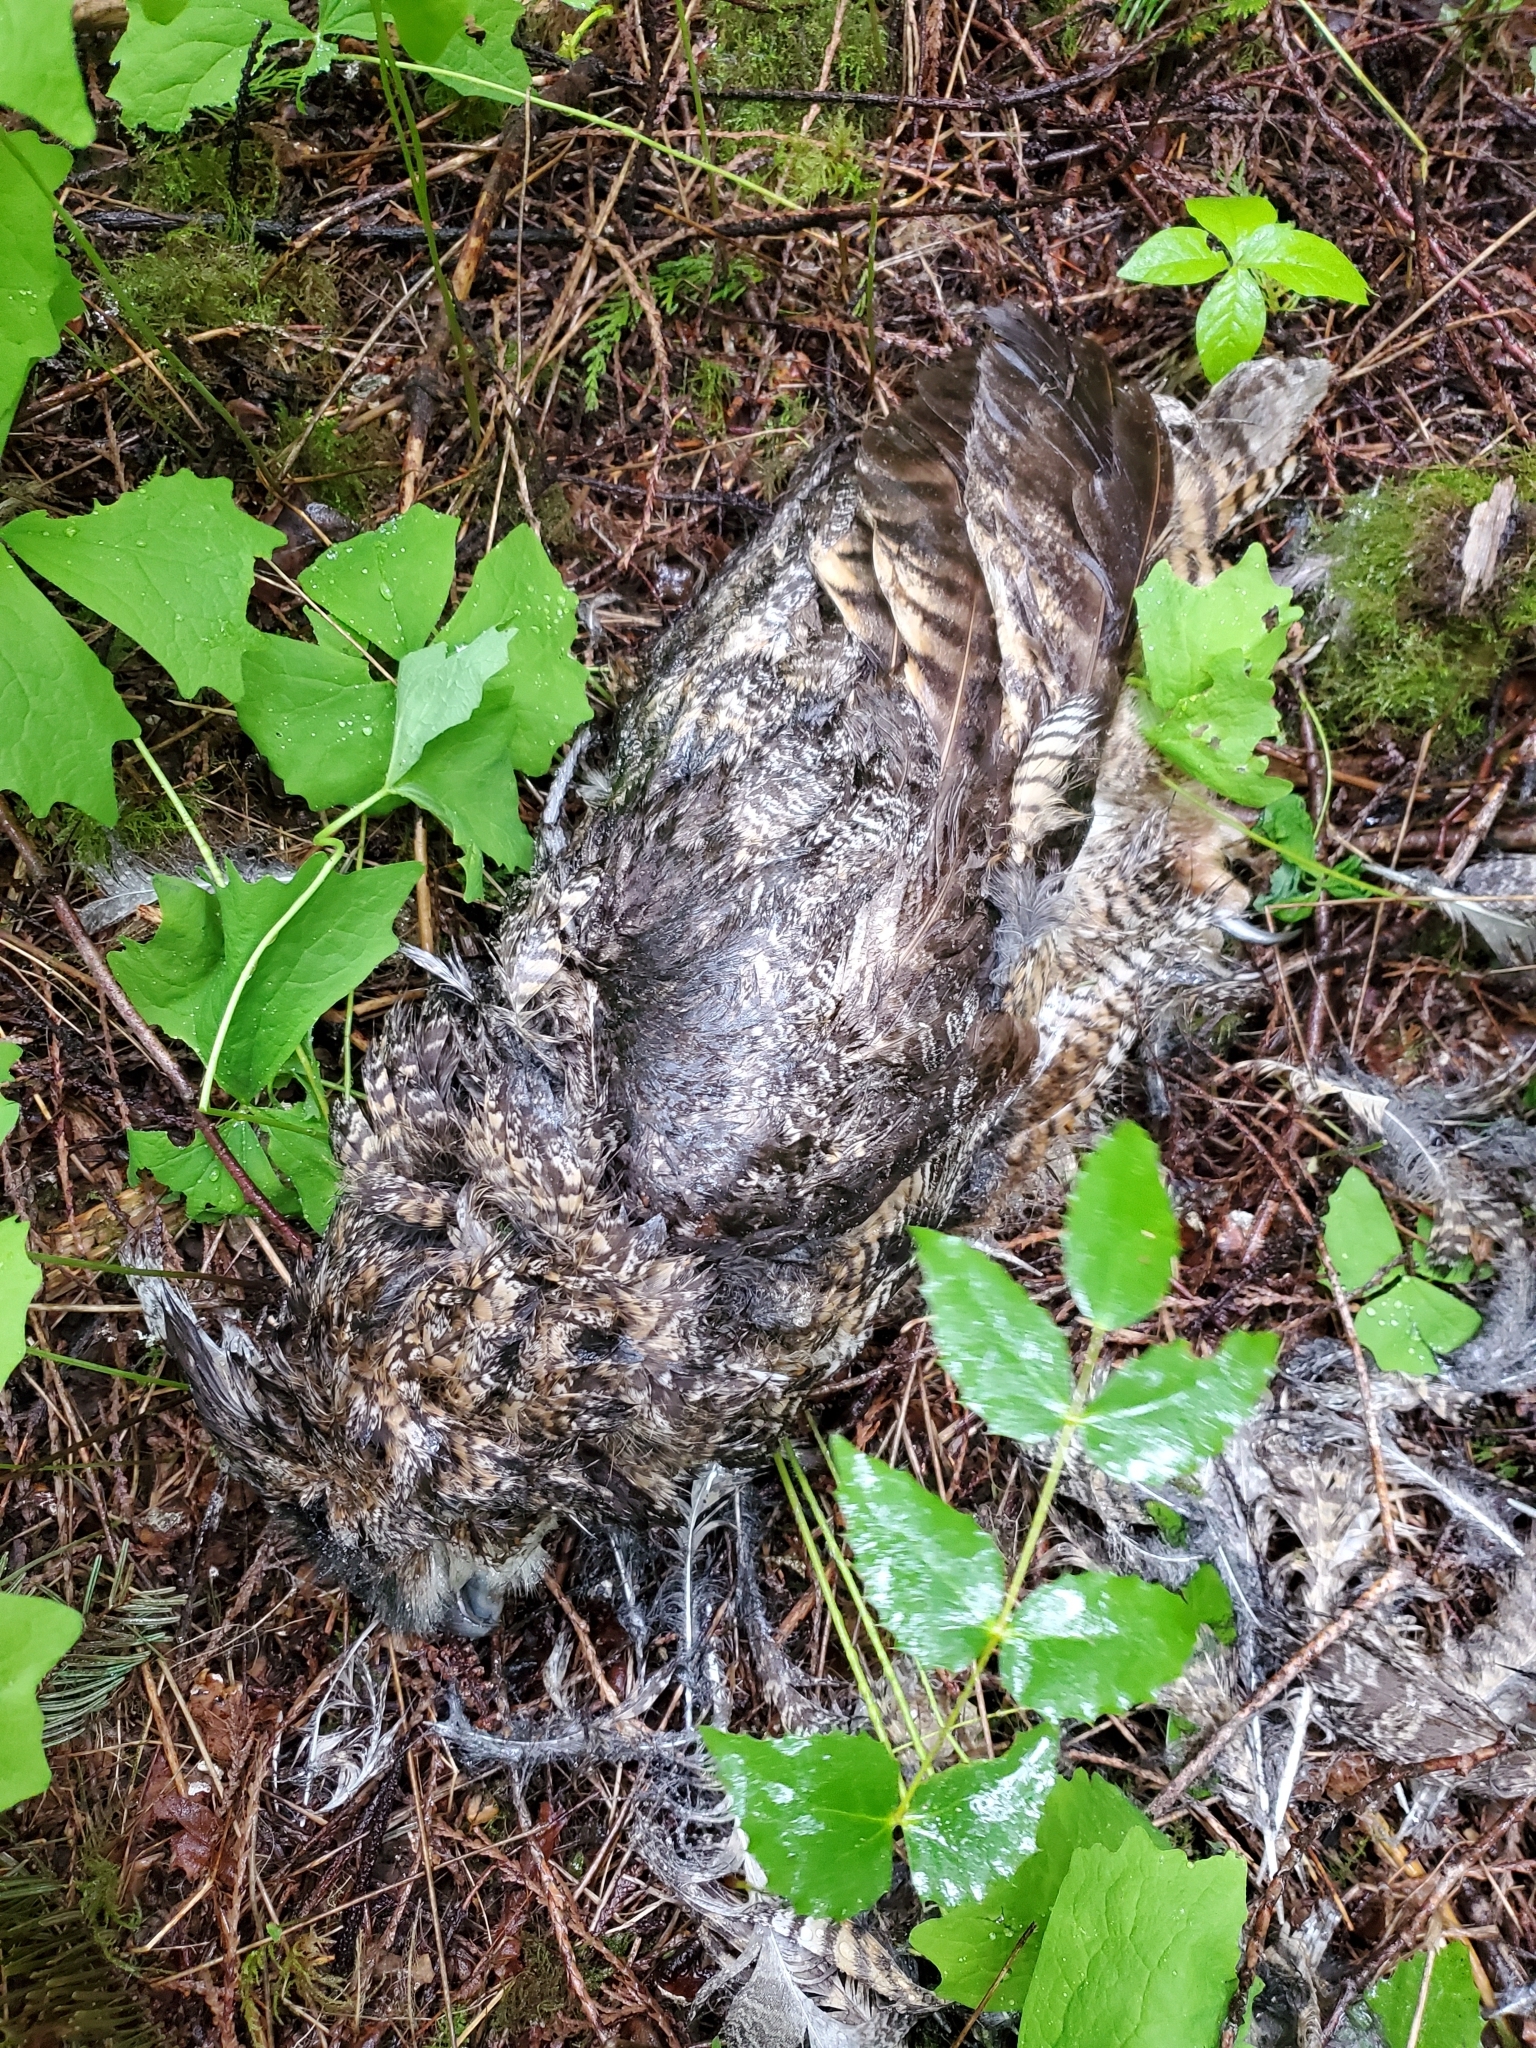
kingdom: Animalia
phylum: Chordata
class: Aves
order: Strigiformes
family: Strigidae
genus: Bubo
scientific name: Bubo virginianus
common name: Great horned owl
